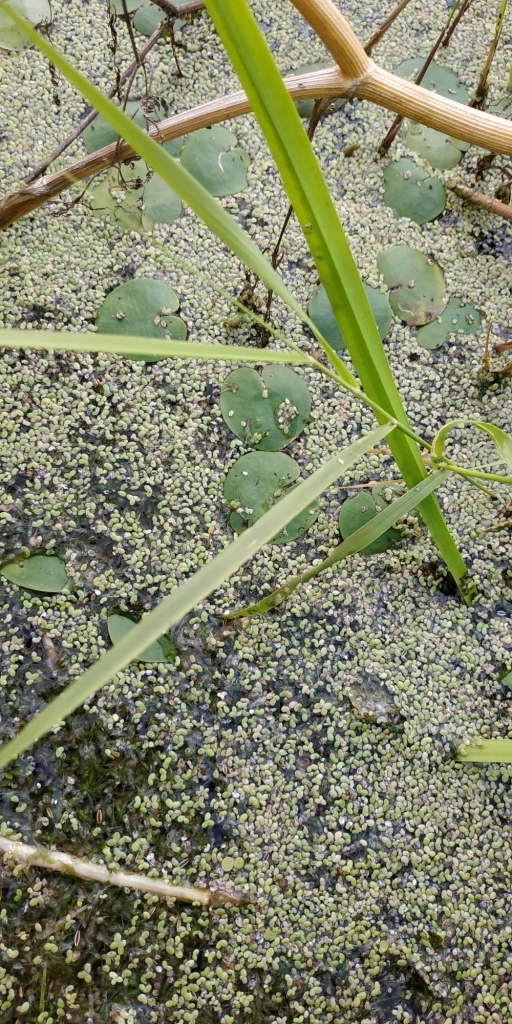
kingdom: Plantae
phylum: Tracheophyta
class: Liliopsida
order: Alismatales
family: Hydrocharitaceae
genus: Hydrocharis
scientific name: Hydrocharis morsus-ranae
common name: Frogbit
